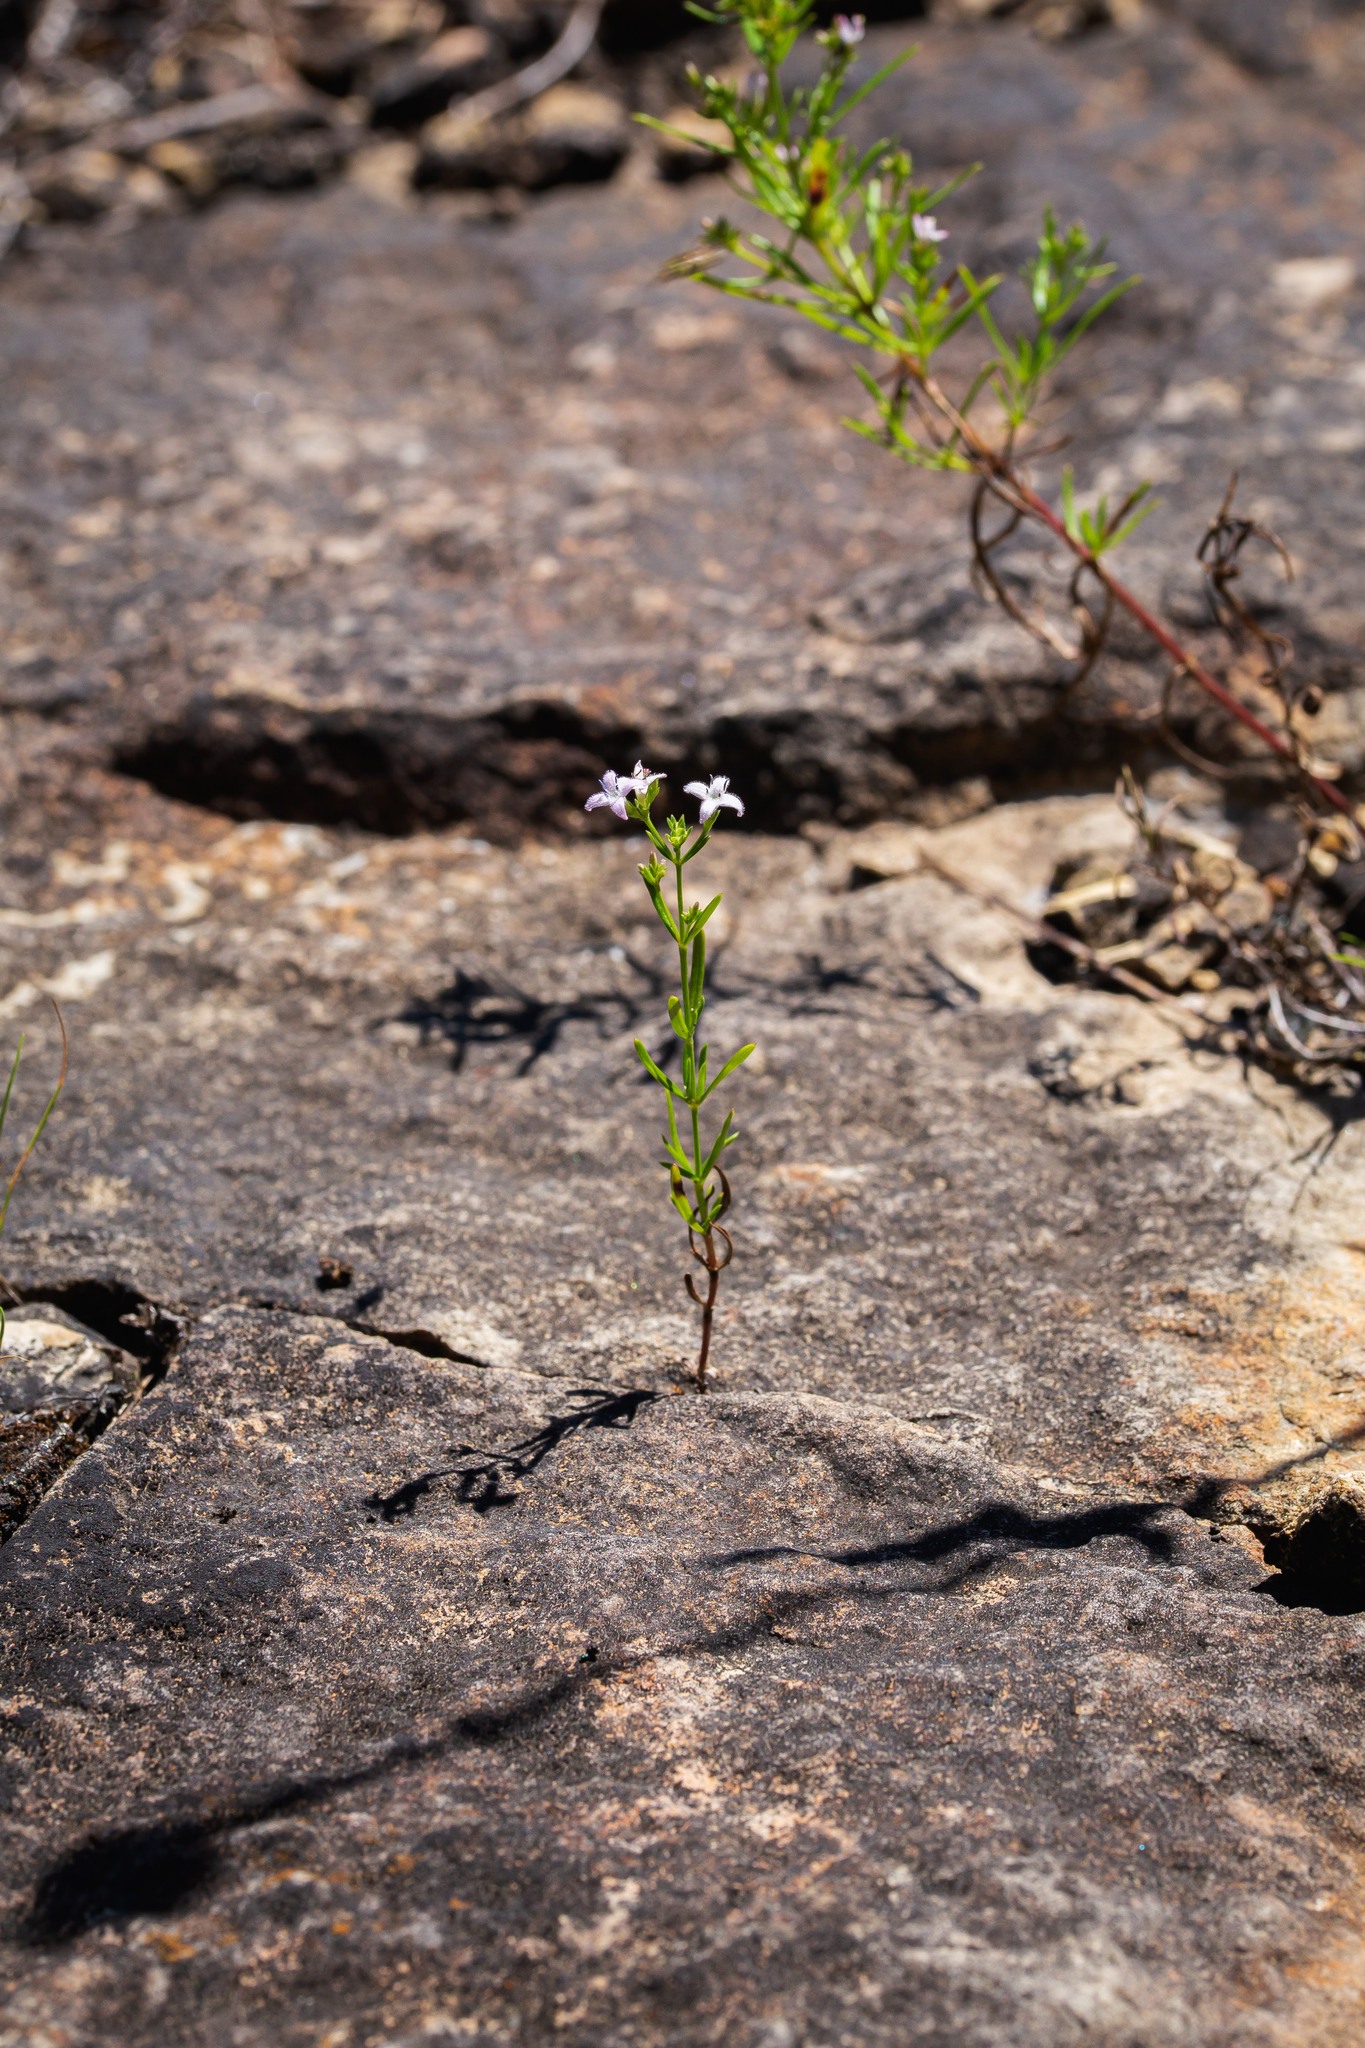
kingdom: Plantae
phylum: Tracheophyta
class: Magnoliopsida
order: Gentianales
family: Rubiaceae
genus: Stenaria
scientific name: Stenaria nigricans
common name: Diamondflowers
